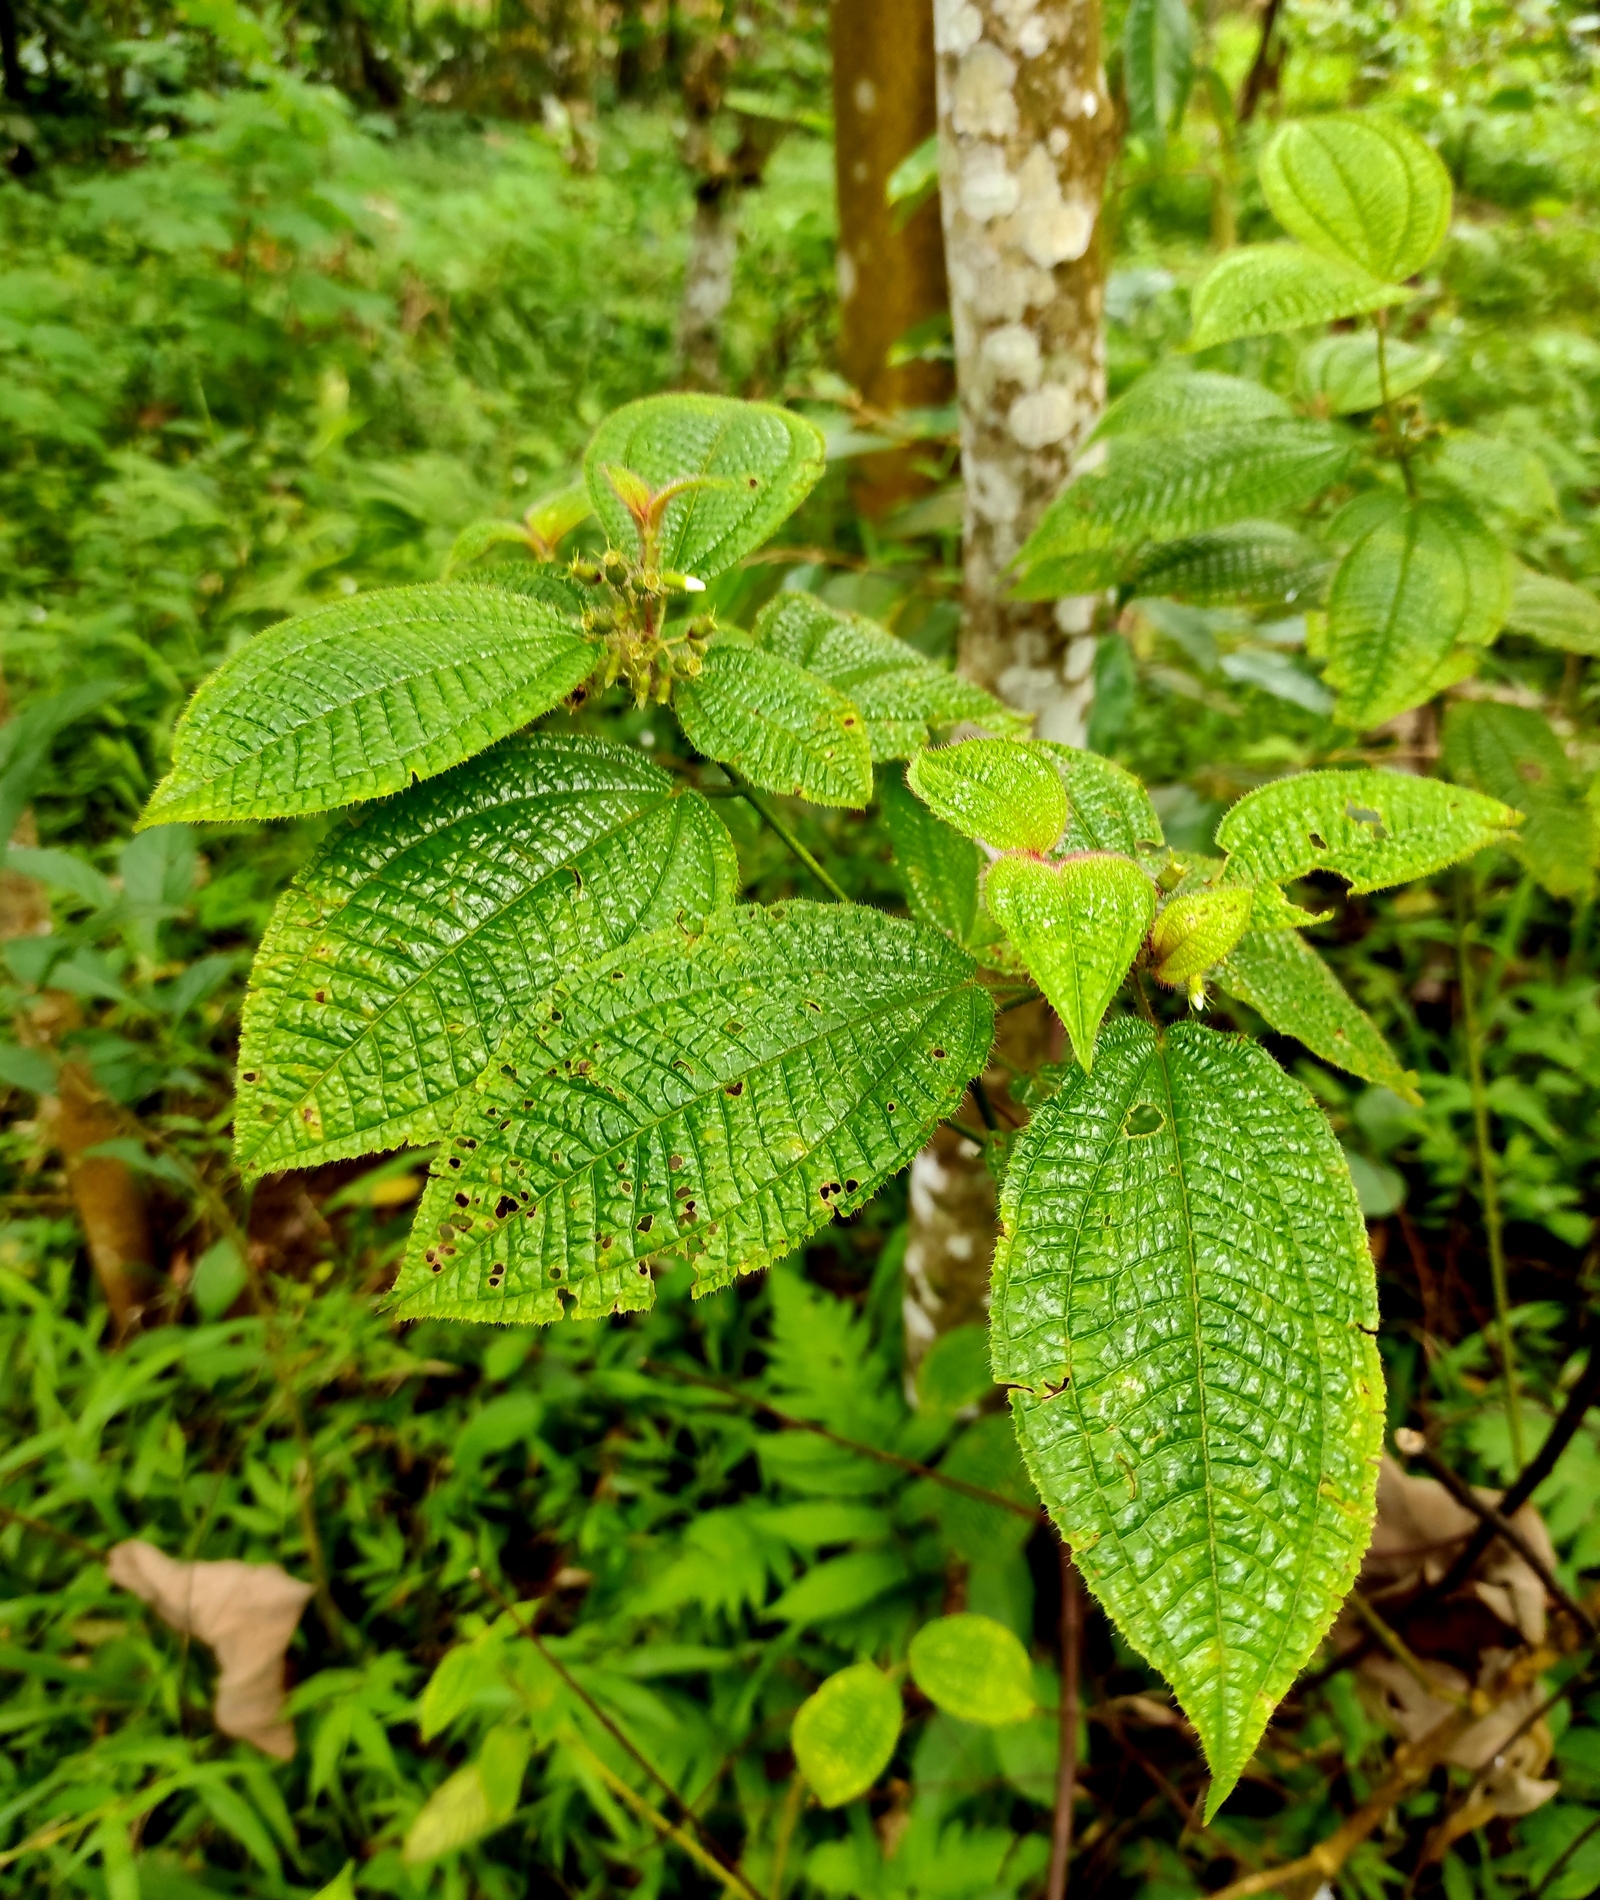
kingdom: Plantae
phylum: Tracheophyta
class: Magnoliopsida
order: Myrtales
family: Melastomataceae
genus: Miconia
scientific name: Miconia crenata
